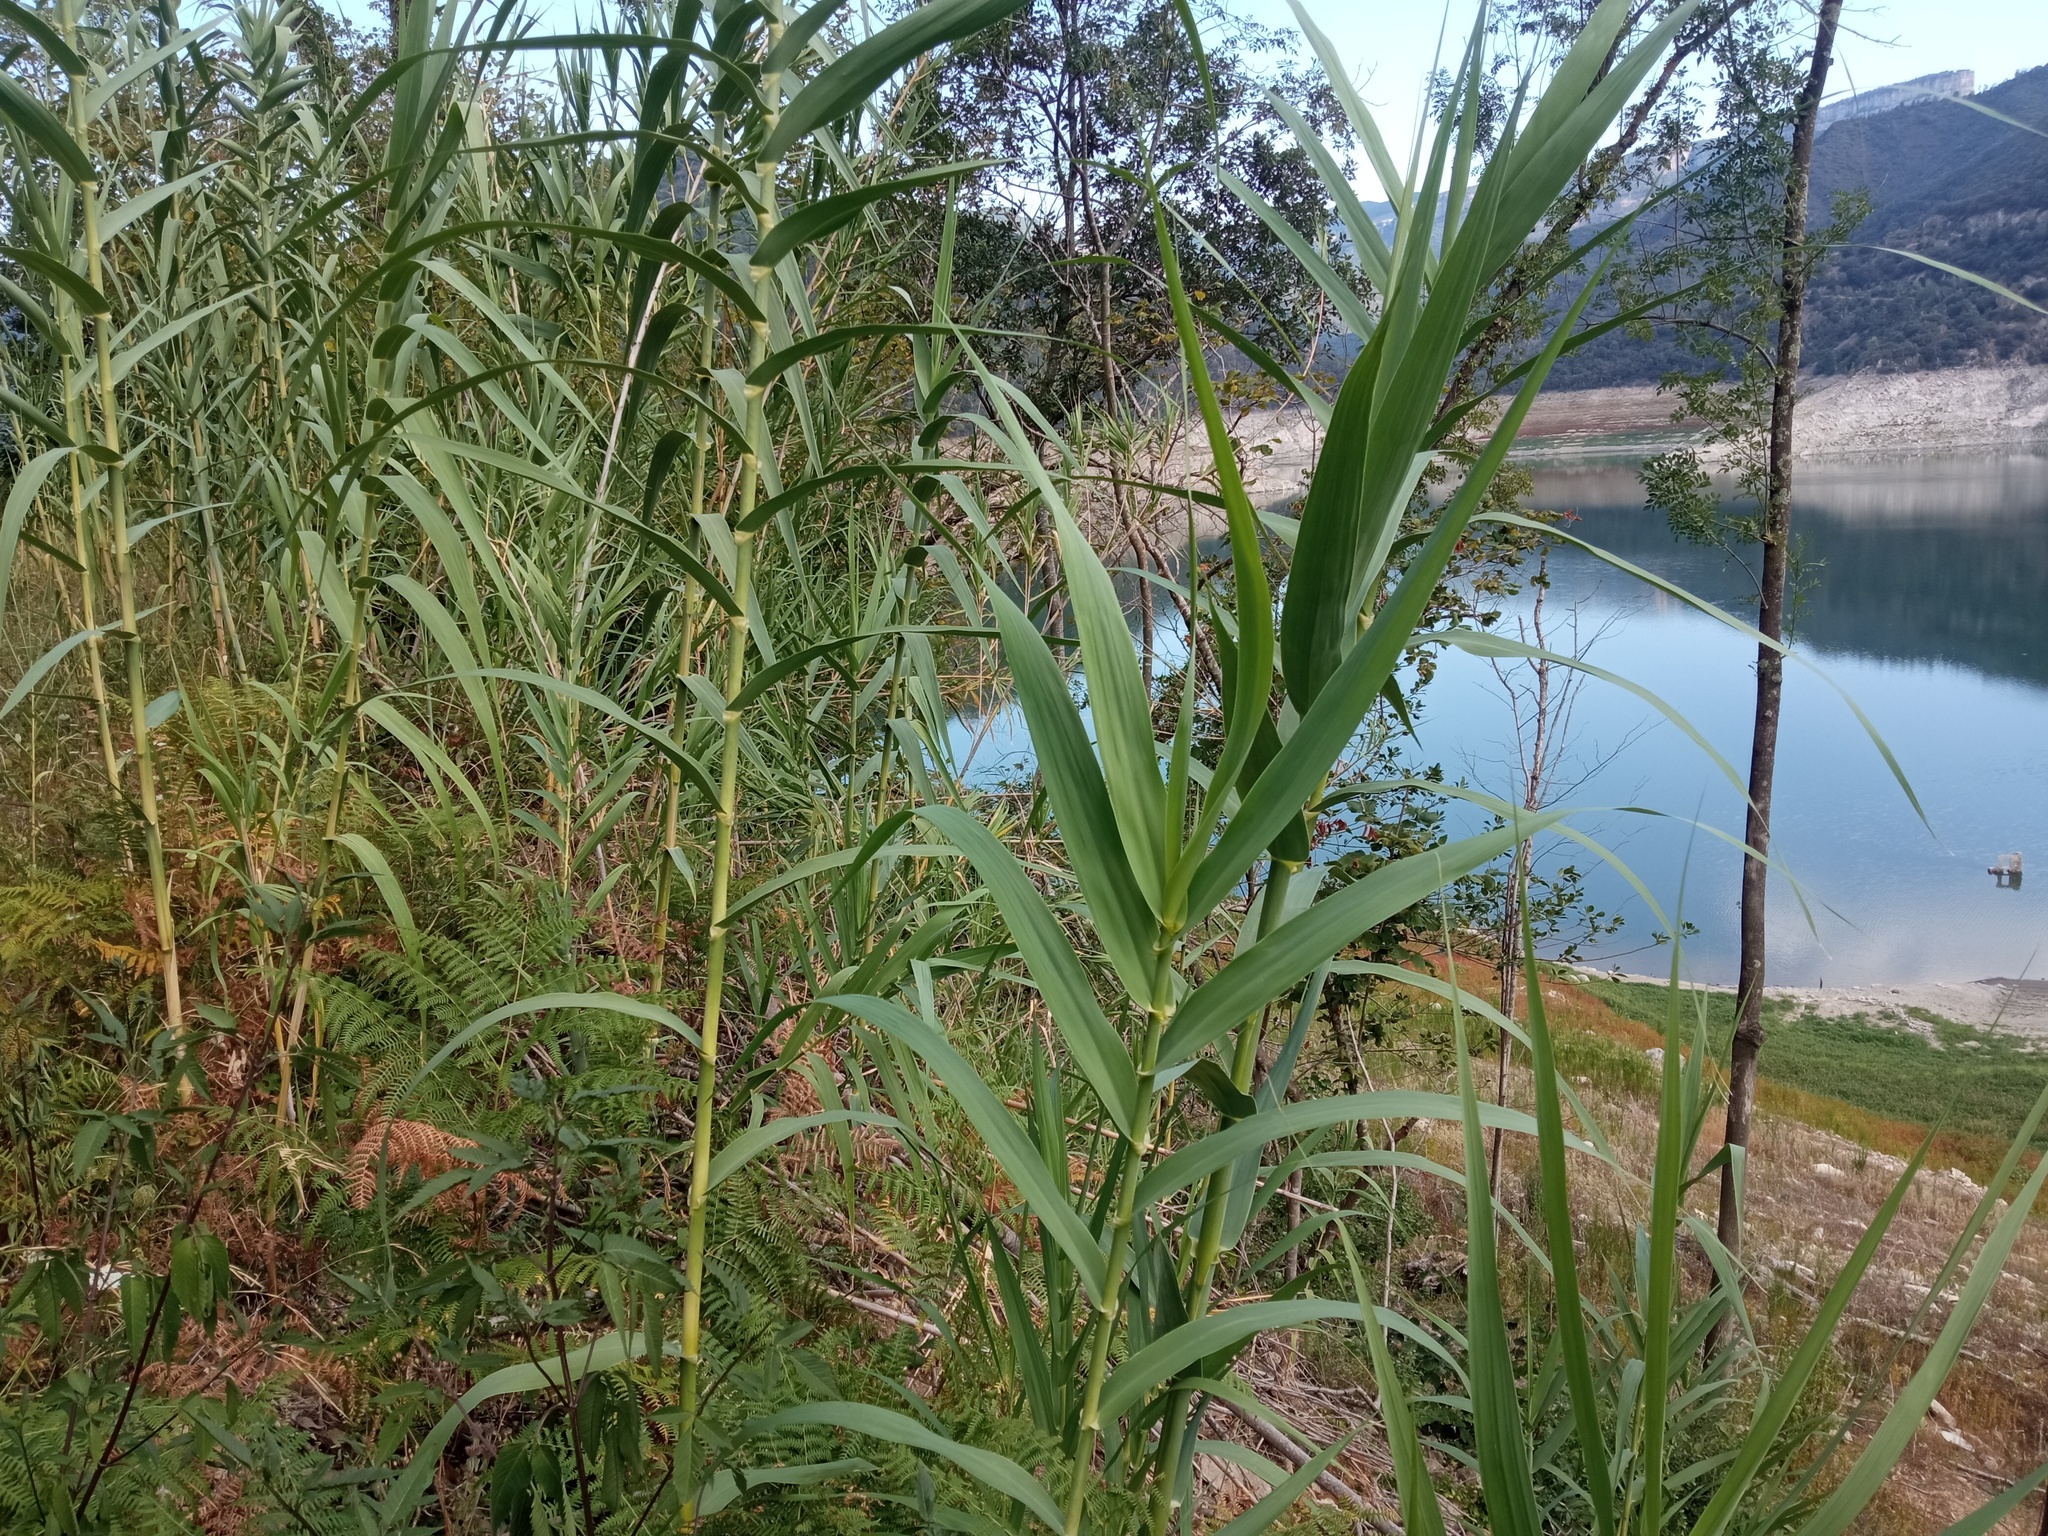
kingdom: Plantae
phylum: Tracheophyta
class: Liliopsida
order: Poales
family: Poaceae
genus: Arundo
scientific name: Arundo donax
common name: Giant reed
